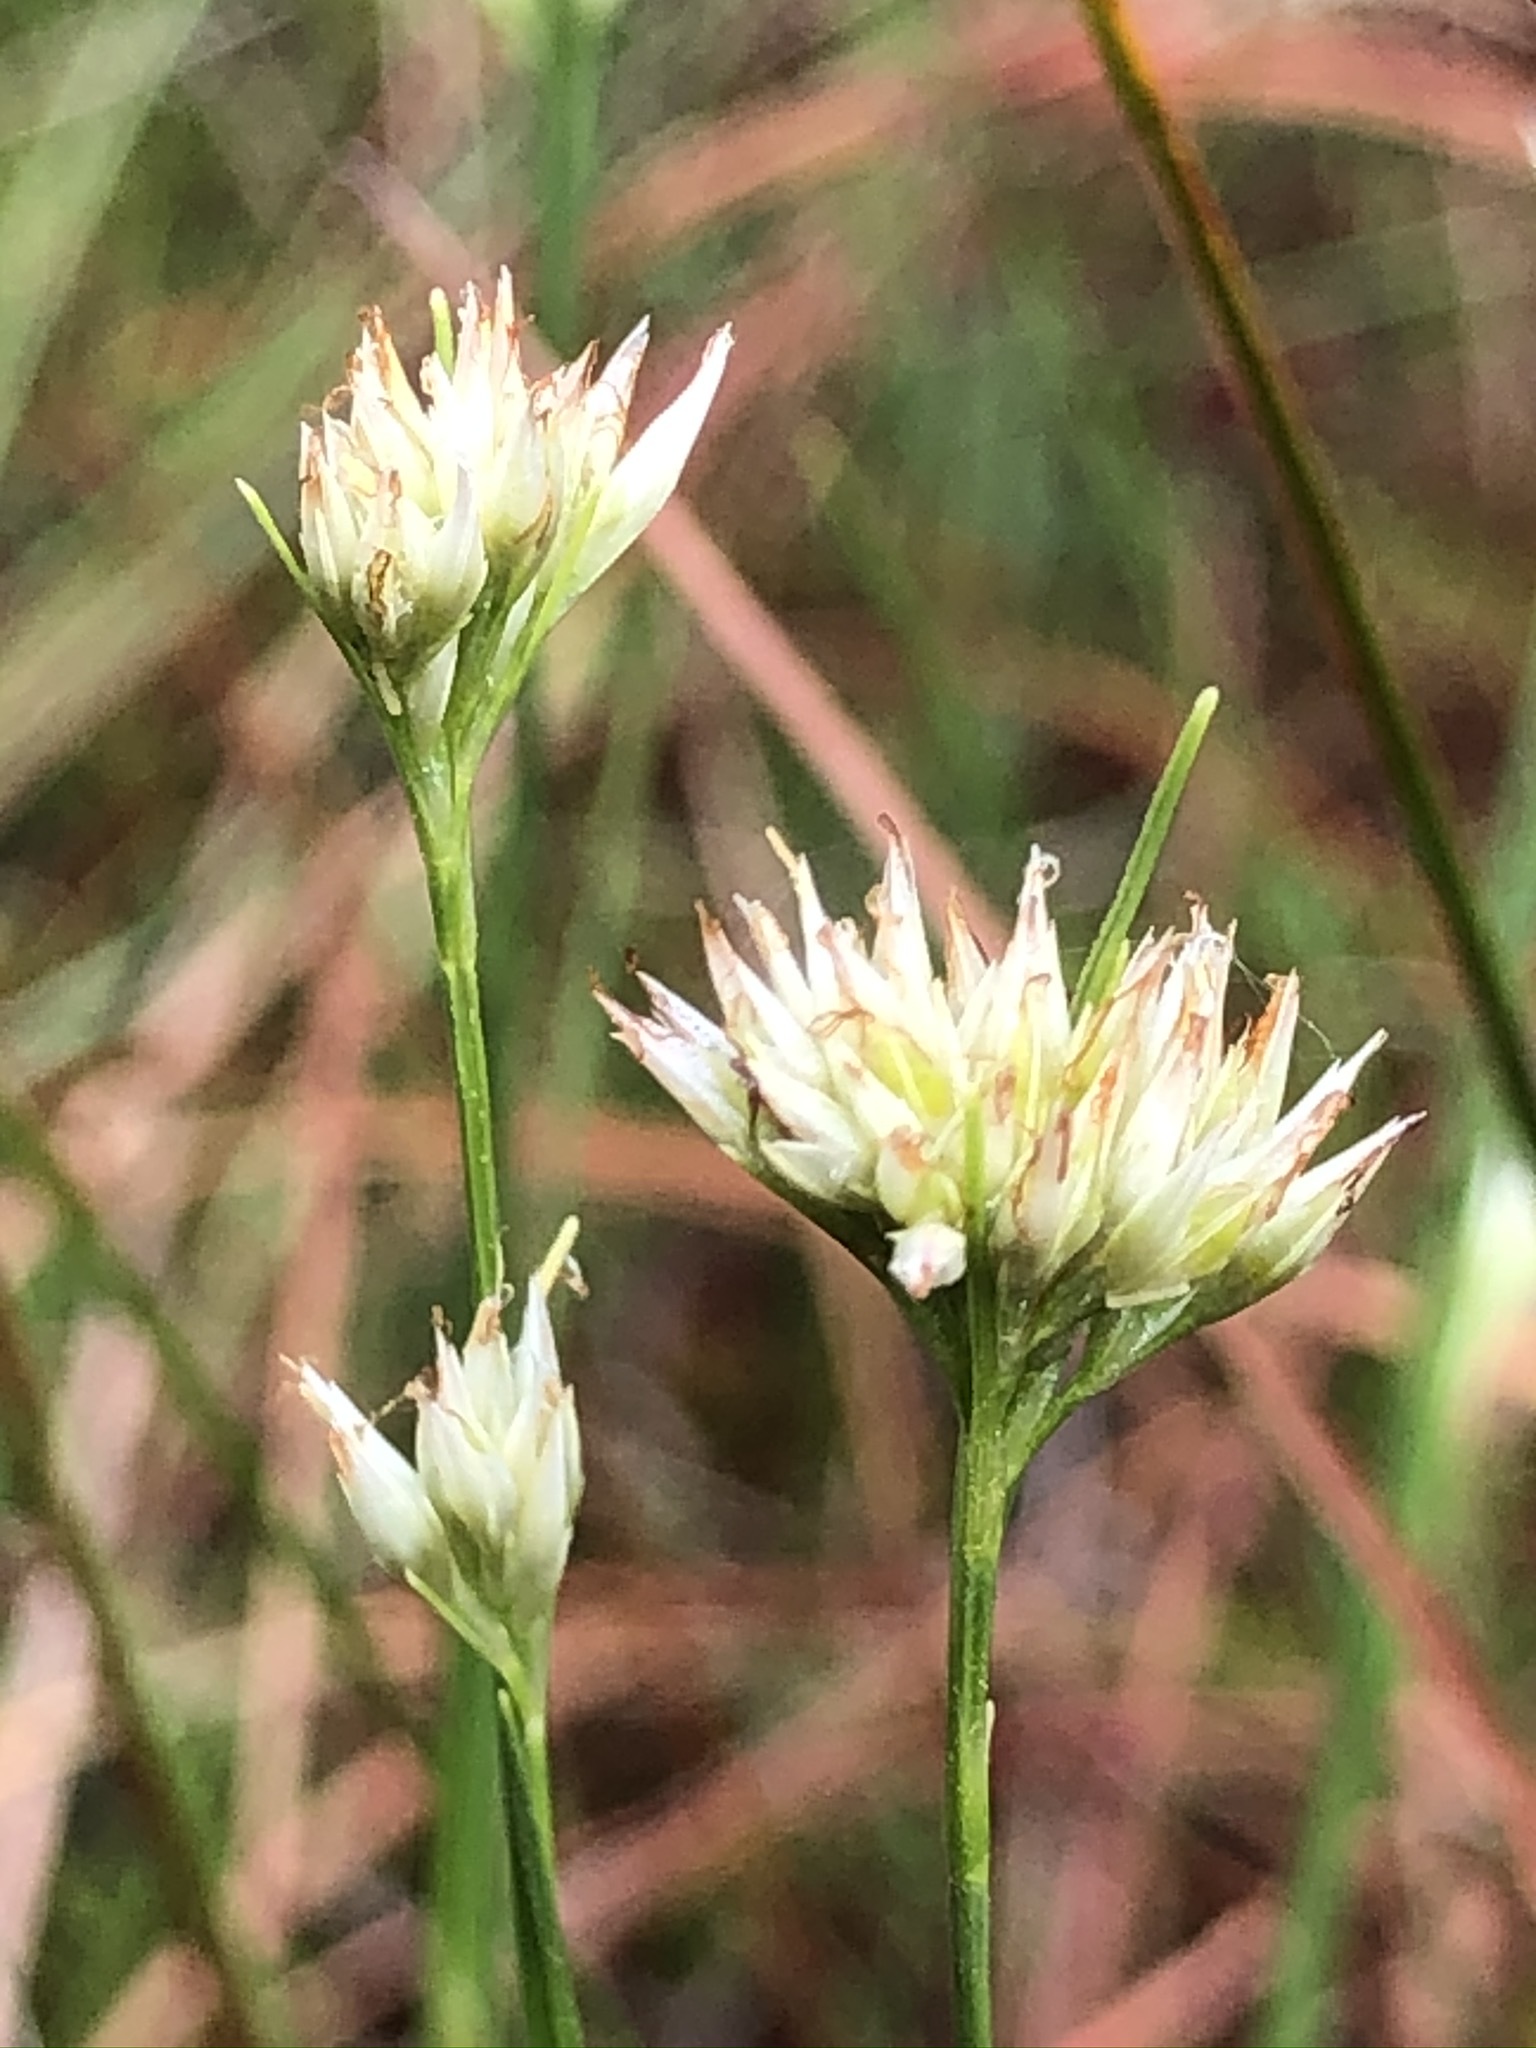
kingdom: Plantae
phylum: Tracheophyta
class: Liliopsida
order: Poales
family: Cyperaceae
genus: Rhynchospora
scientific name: Rhynchospora alba
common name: White beak-sedge
